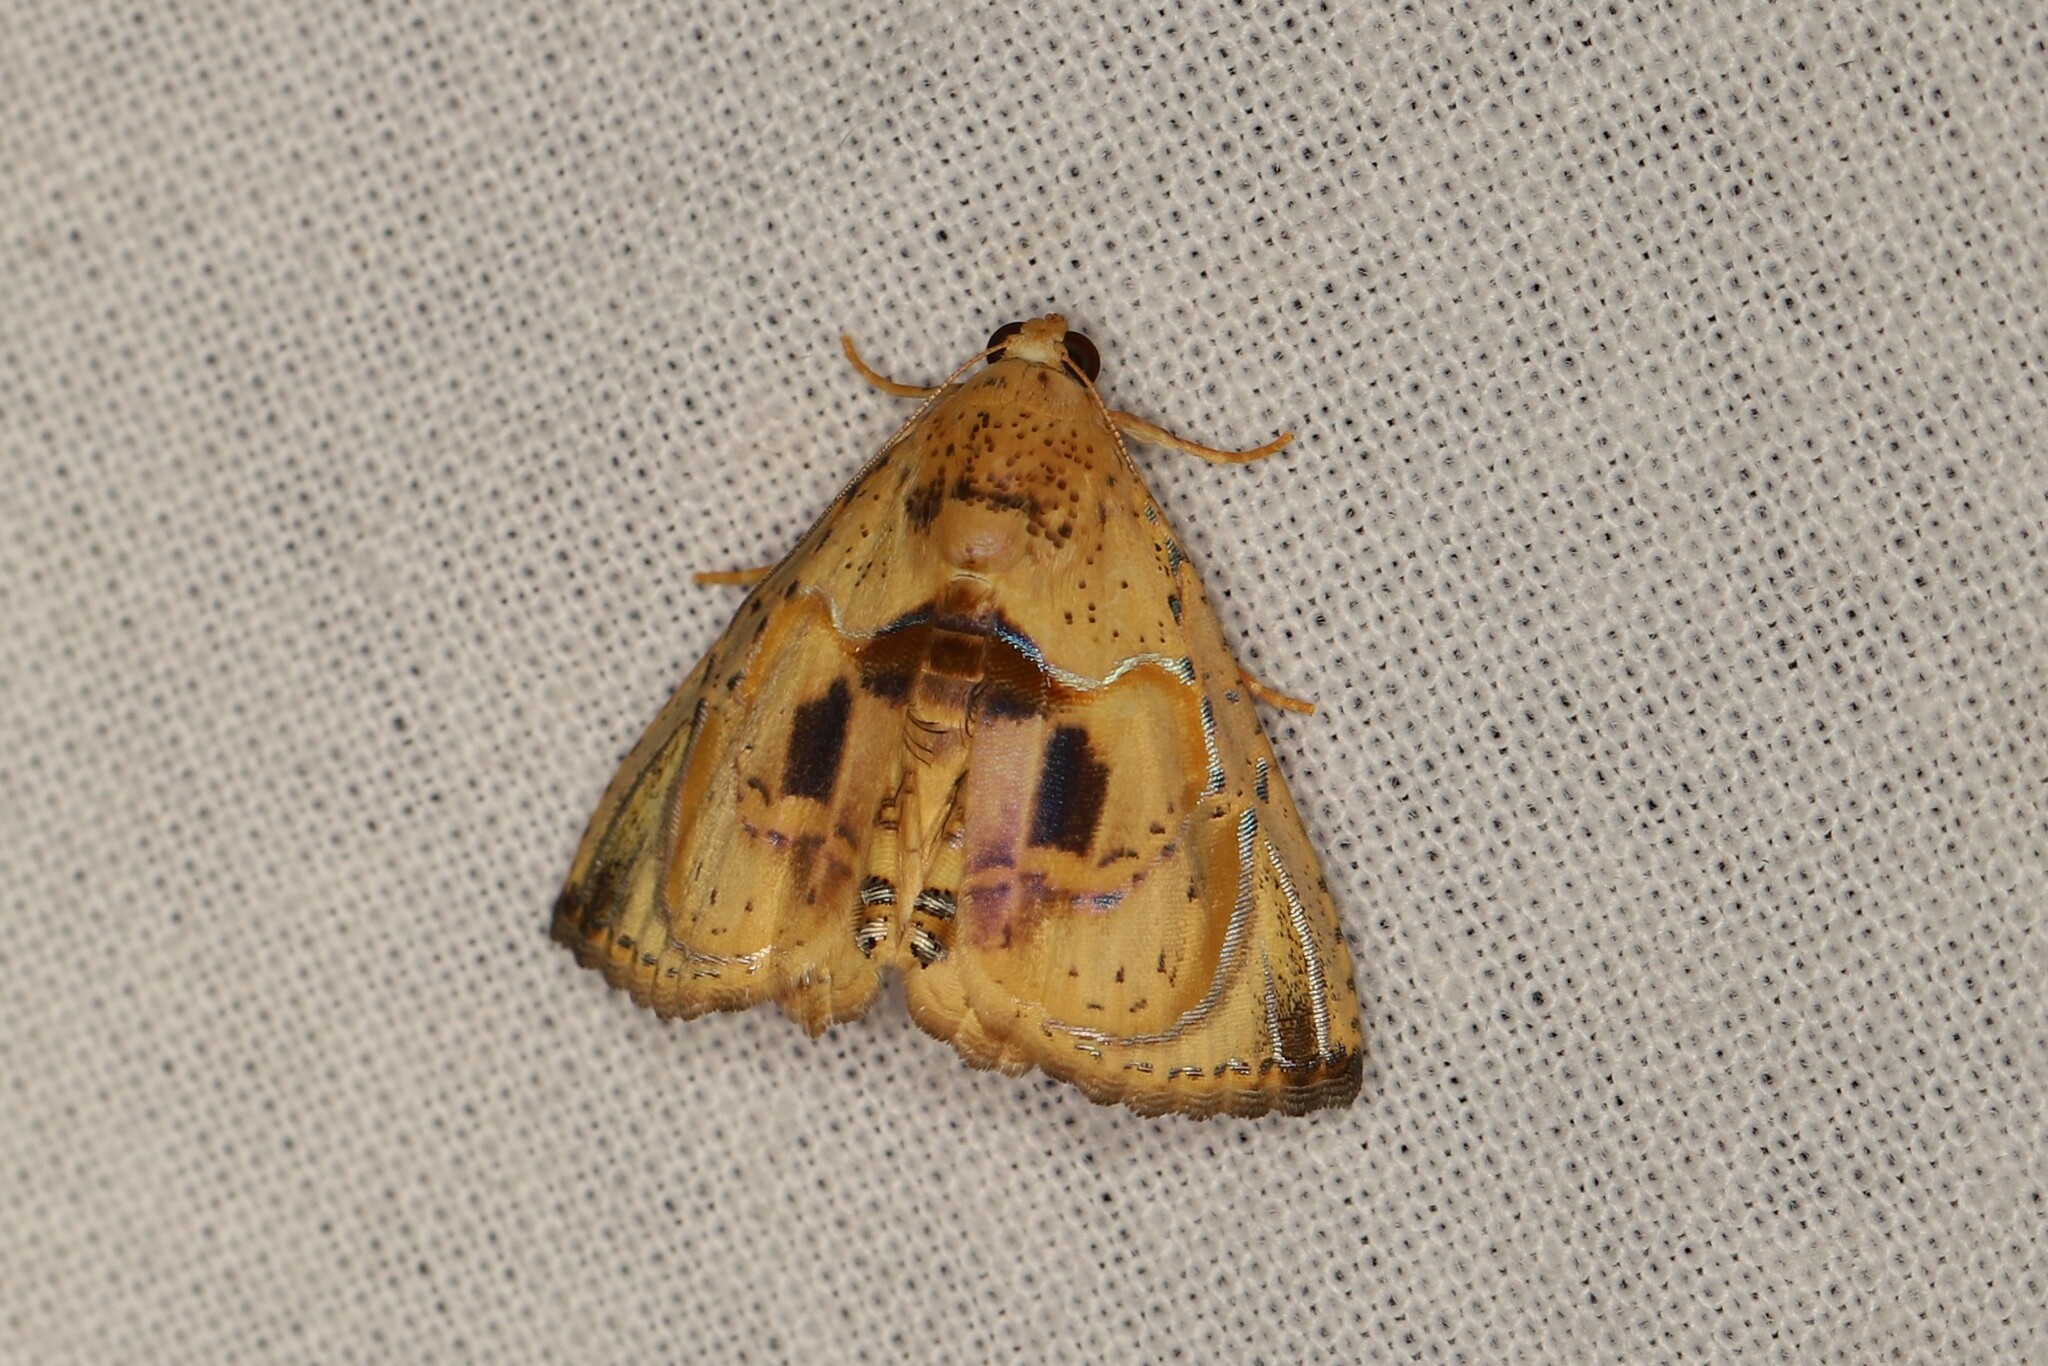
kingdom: Animalia
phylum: Arthropoda
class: Insecta
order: Lepidoptera
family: Erebidae
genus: Calydia
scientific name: Calydia osseata
